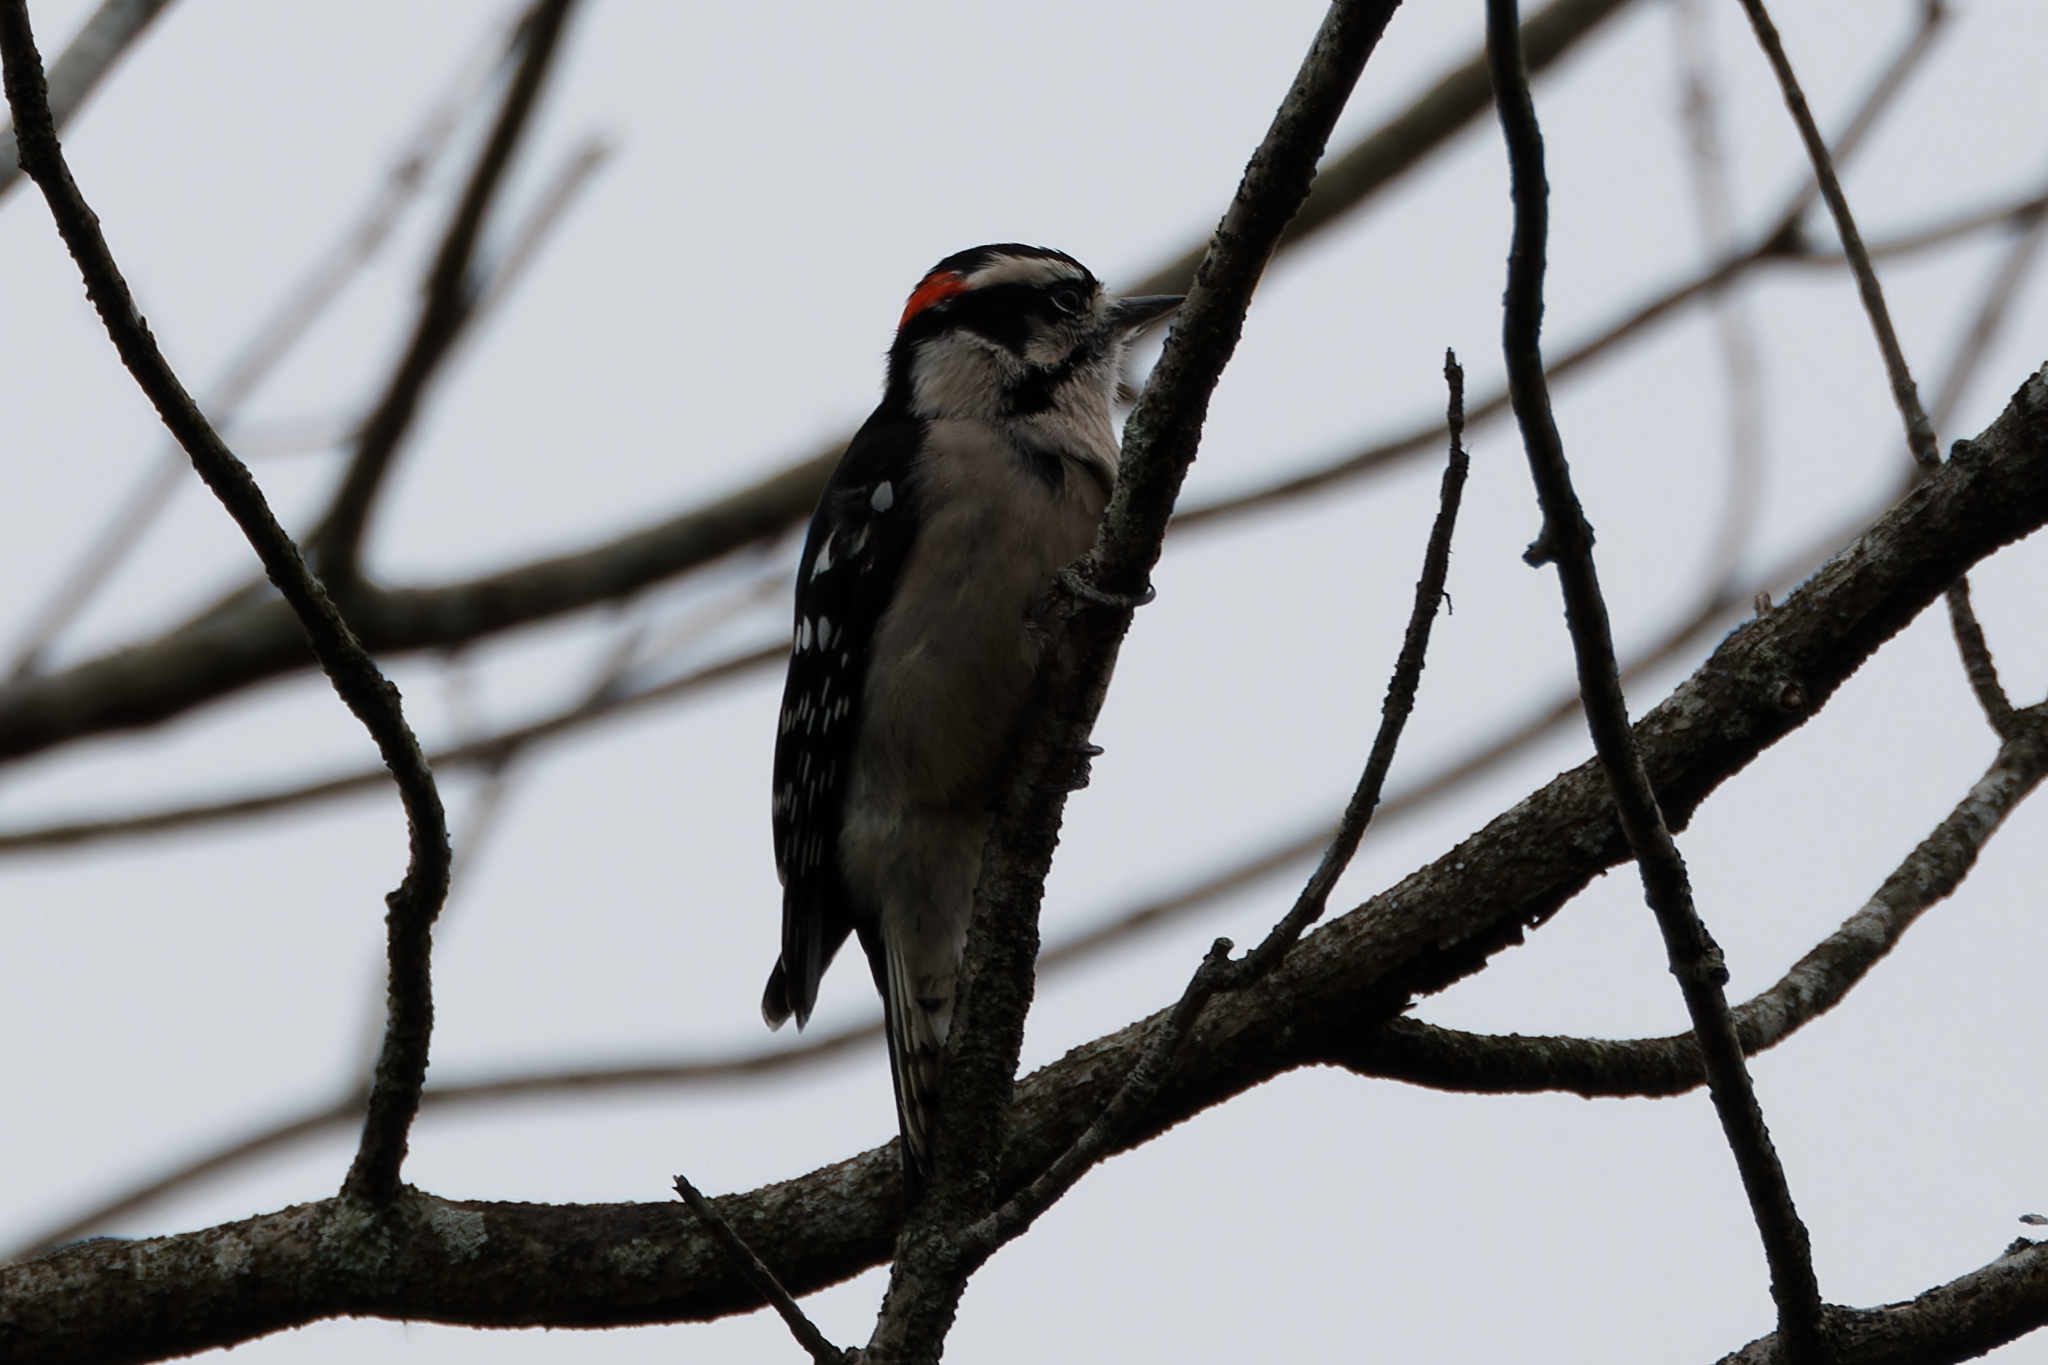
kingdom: Animalia
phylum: Chordata
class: Aves
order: Piciformes
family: Picidae
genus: Dryobates
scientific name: Dryobates pubescens
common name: Downy woodpecker
